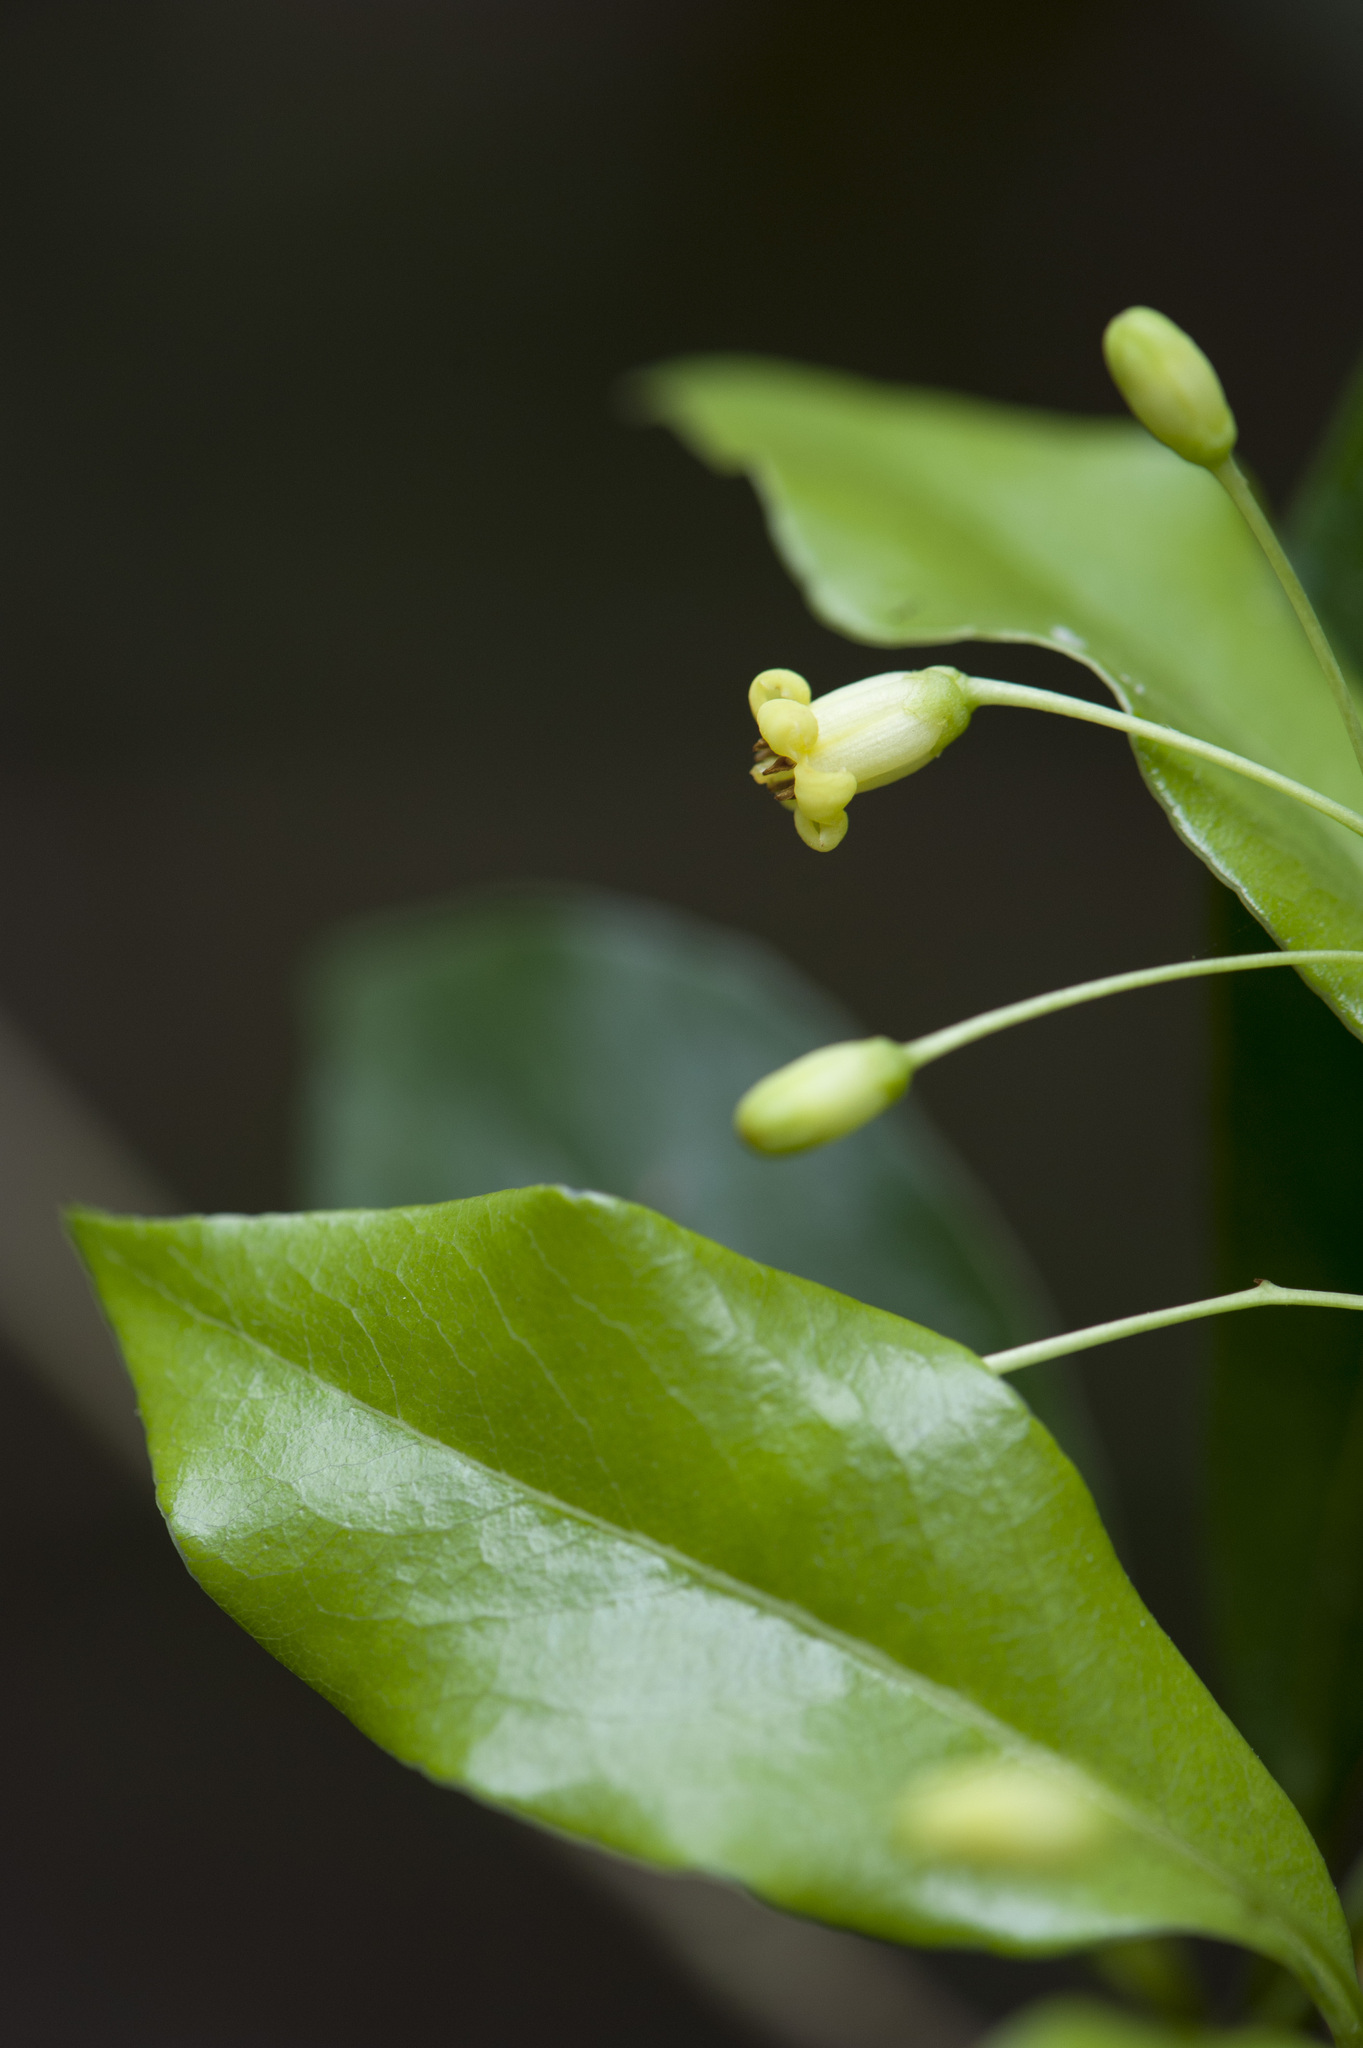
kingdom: Plantae
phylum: Tracheophyta
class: Magnoliopsida
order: Apiales
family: Pittosporaceae
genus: Pittosporum
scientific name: Pittosporum illicioides
